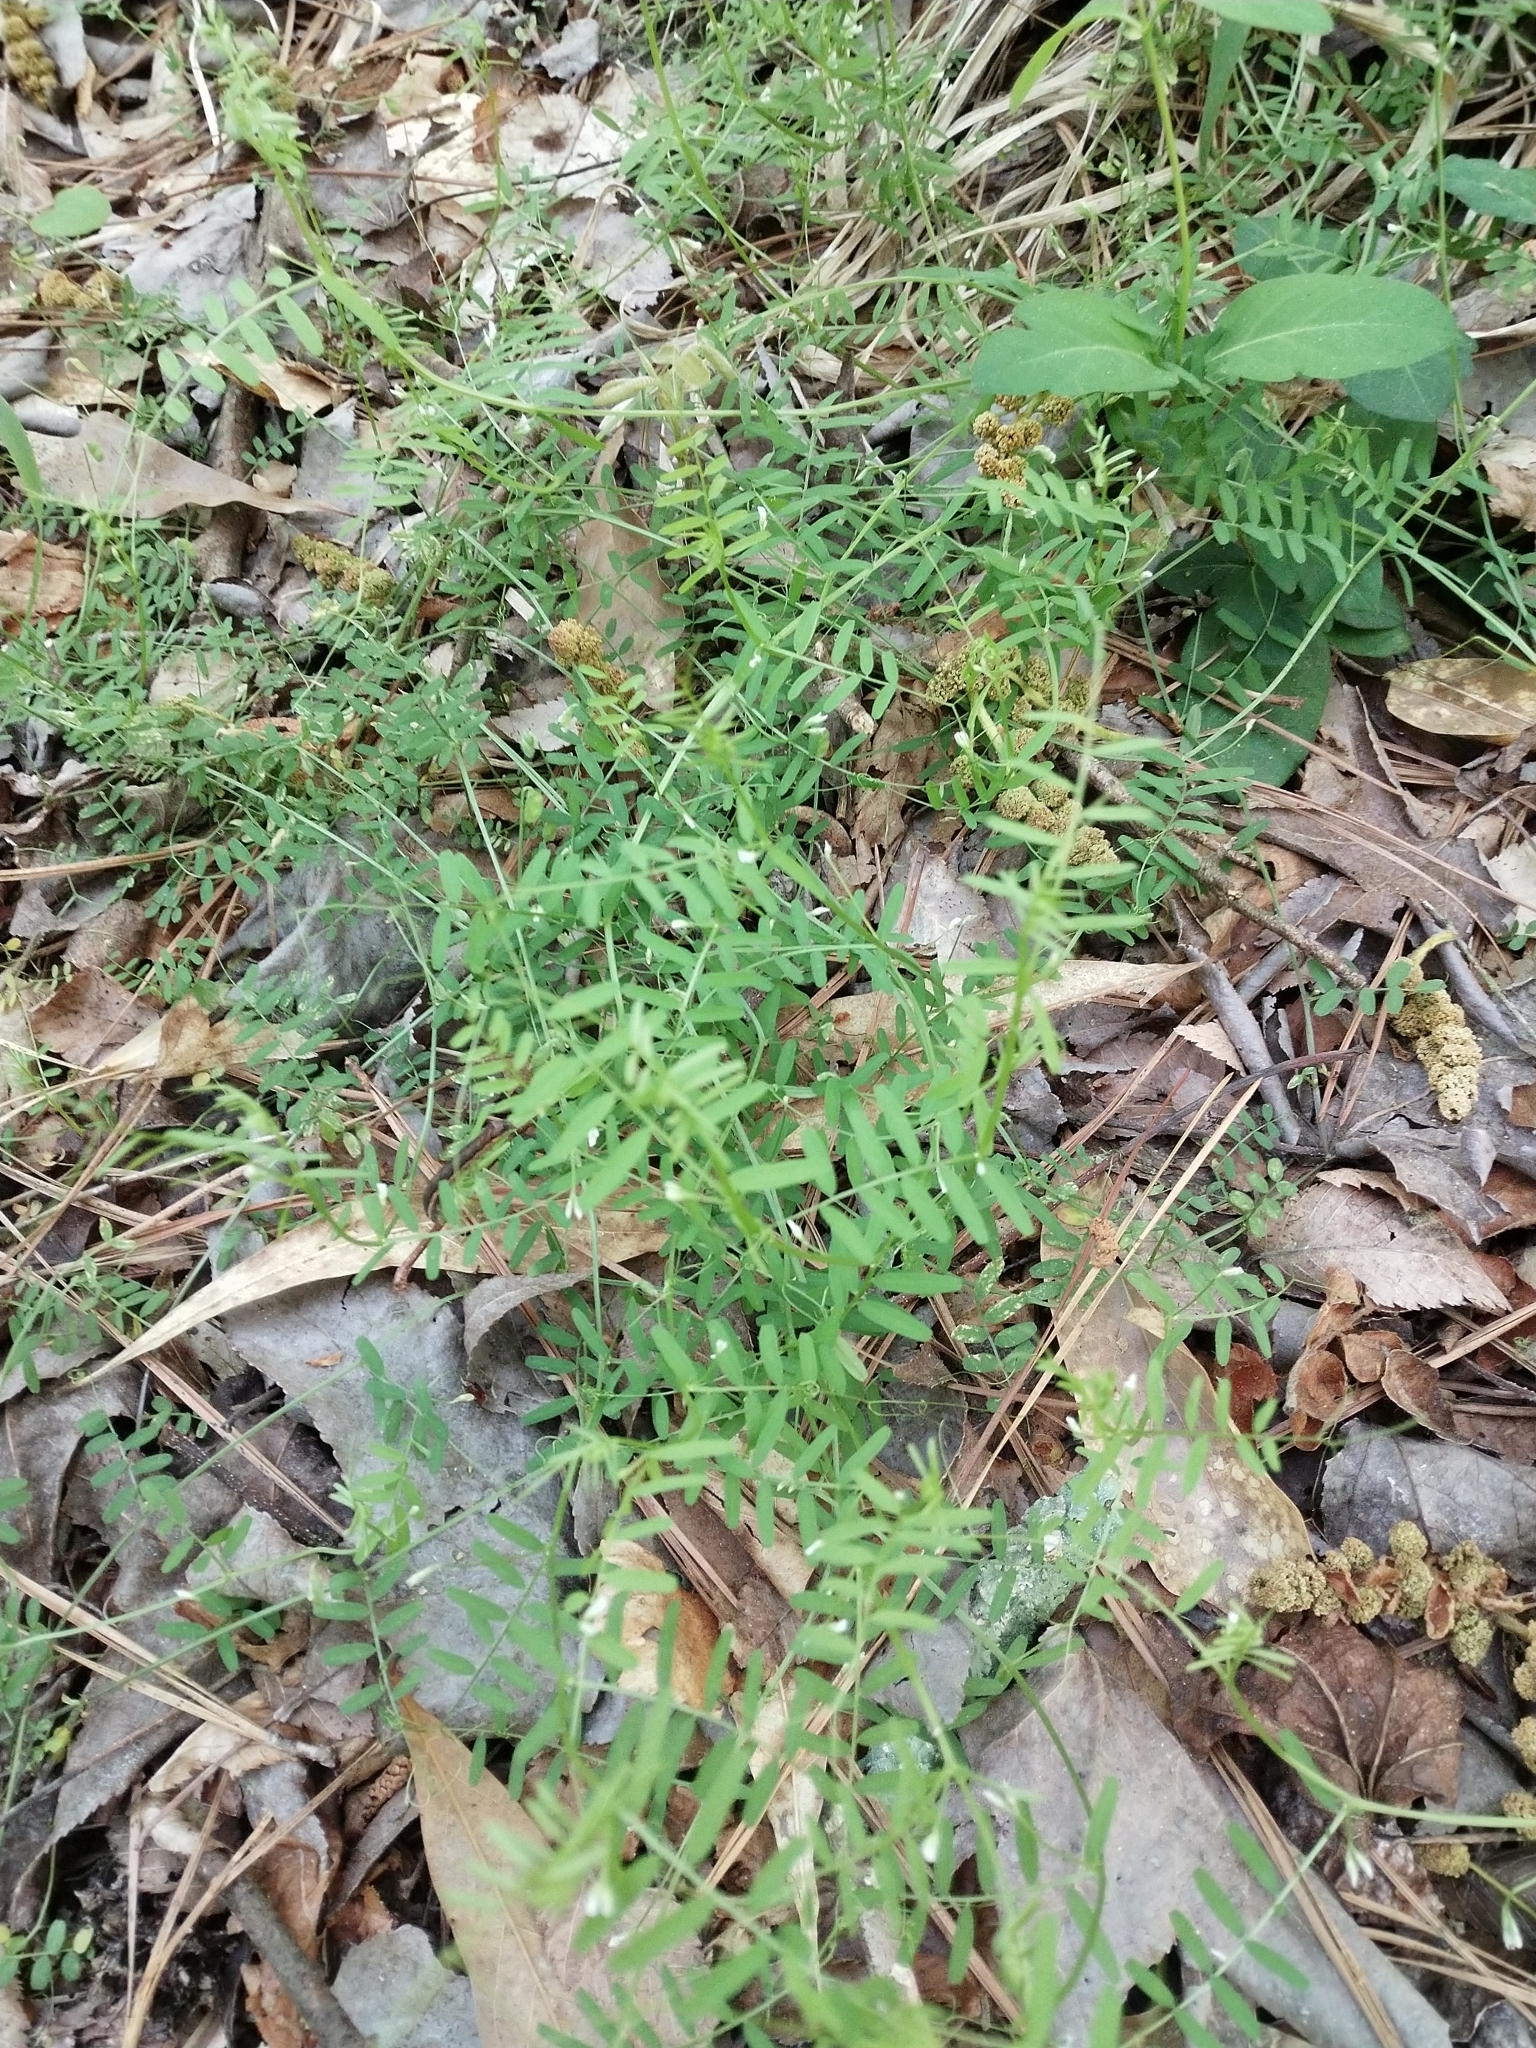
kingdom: Plantae
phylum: Tracheophyta
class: Magnoliopsida
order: Fabales
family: Fabaceae
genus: Vicia
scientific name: Vicia villosa
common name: Fodder vetch
